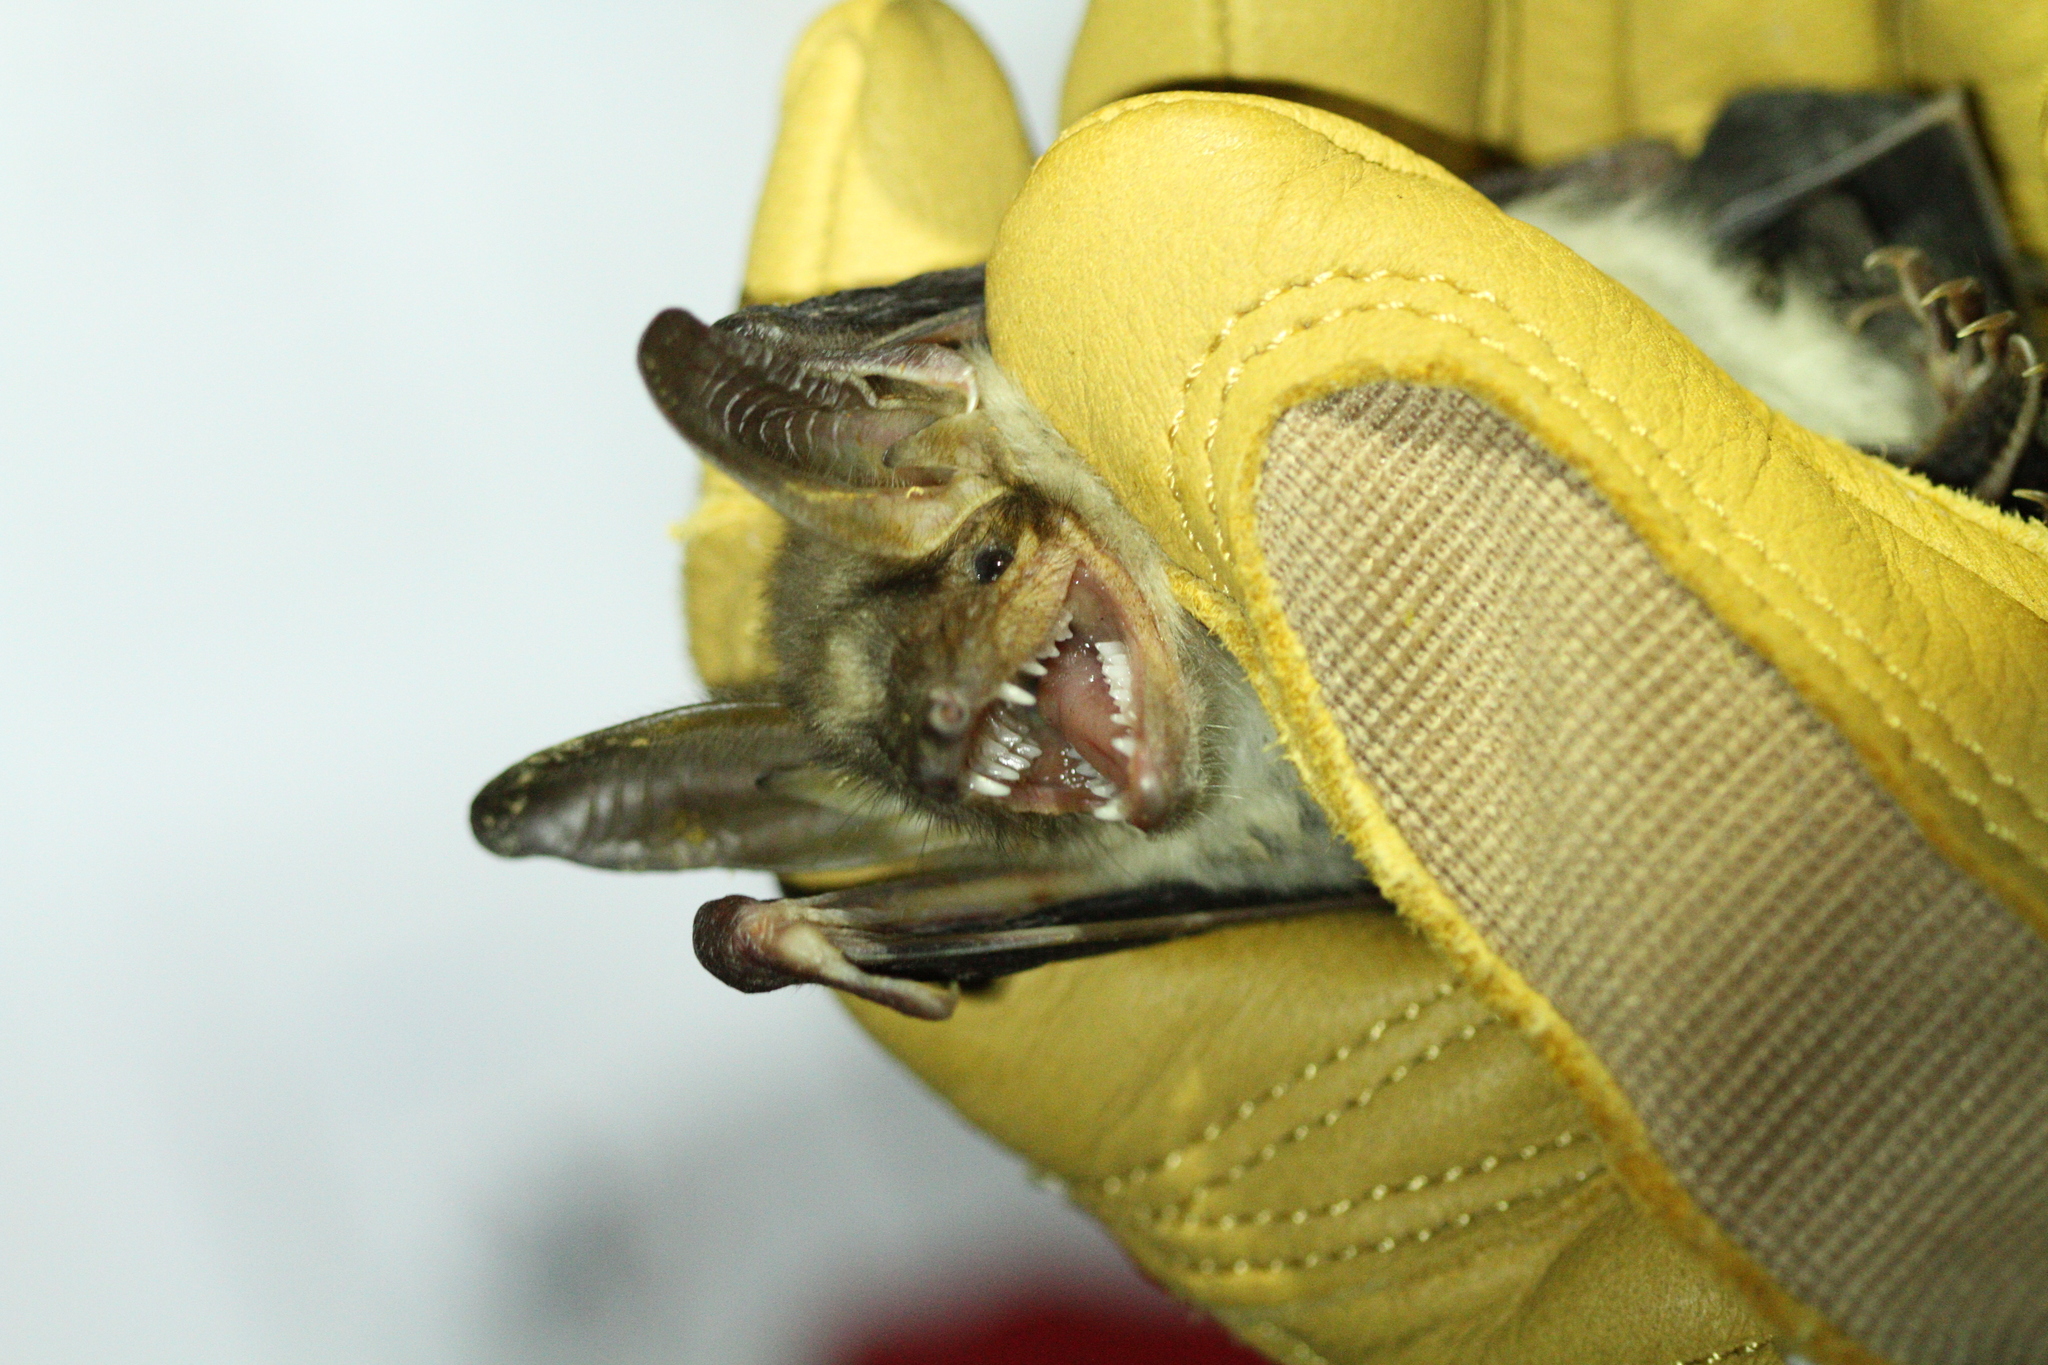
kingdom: Animalia
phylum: Chordata
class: Mammalia
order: Chiroptera
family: Vespertilionidae
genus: Myotis
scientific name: Myotis myotis
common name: Greater mouse-eared bat
